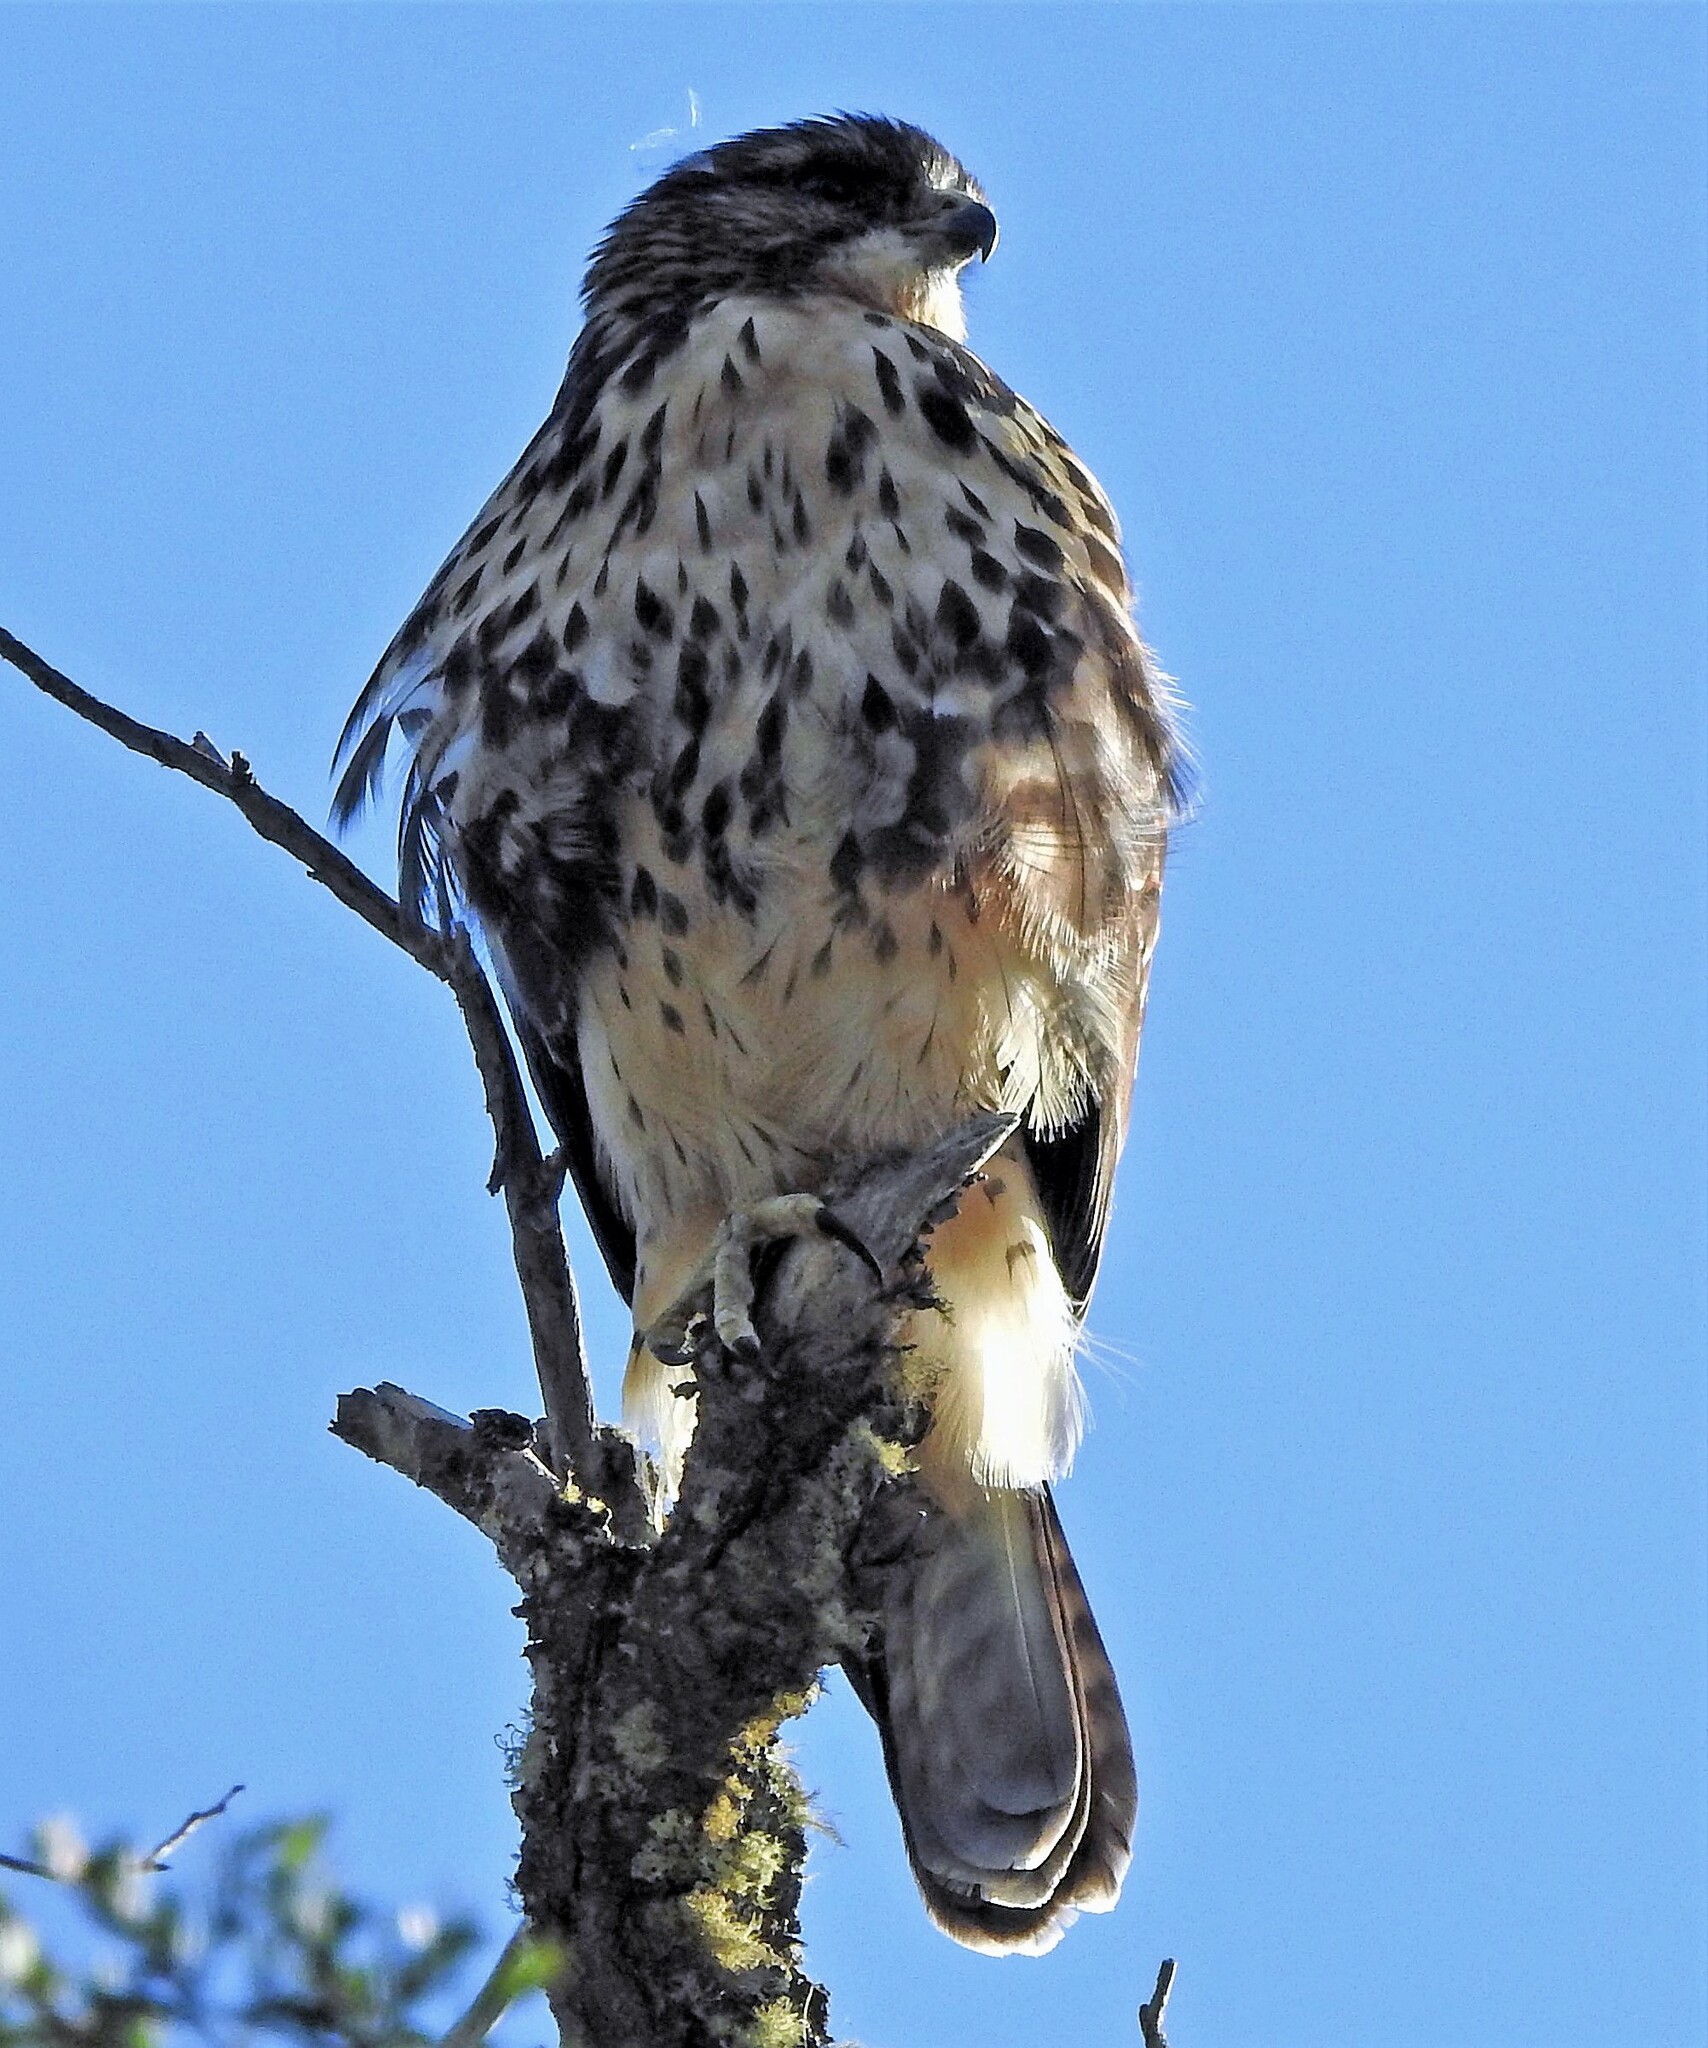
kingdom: Animalia
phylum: Chordata
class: Aves
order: Accipitriformes
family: Accipitridae
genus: Buteo
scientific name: Buteo albigula
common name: White-throated hawk
